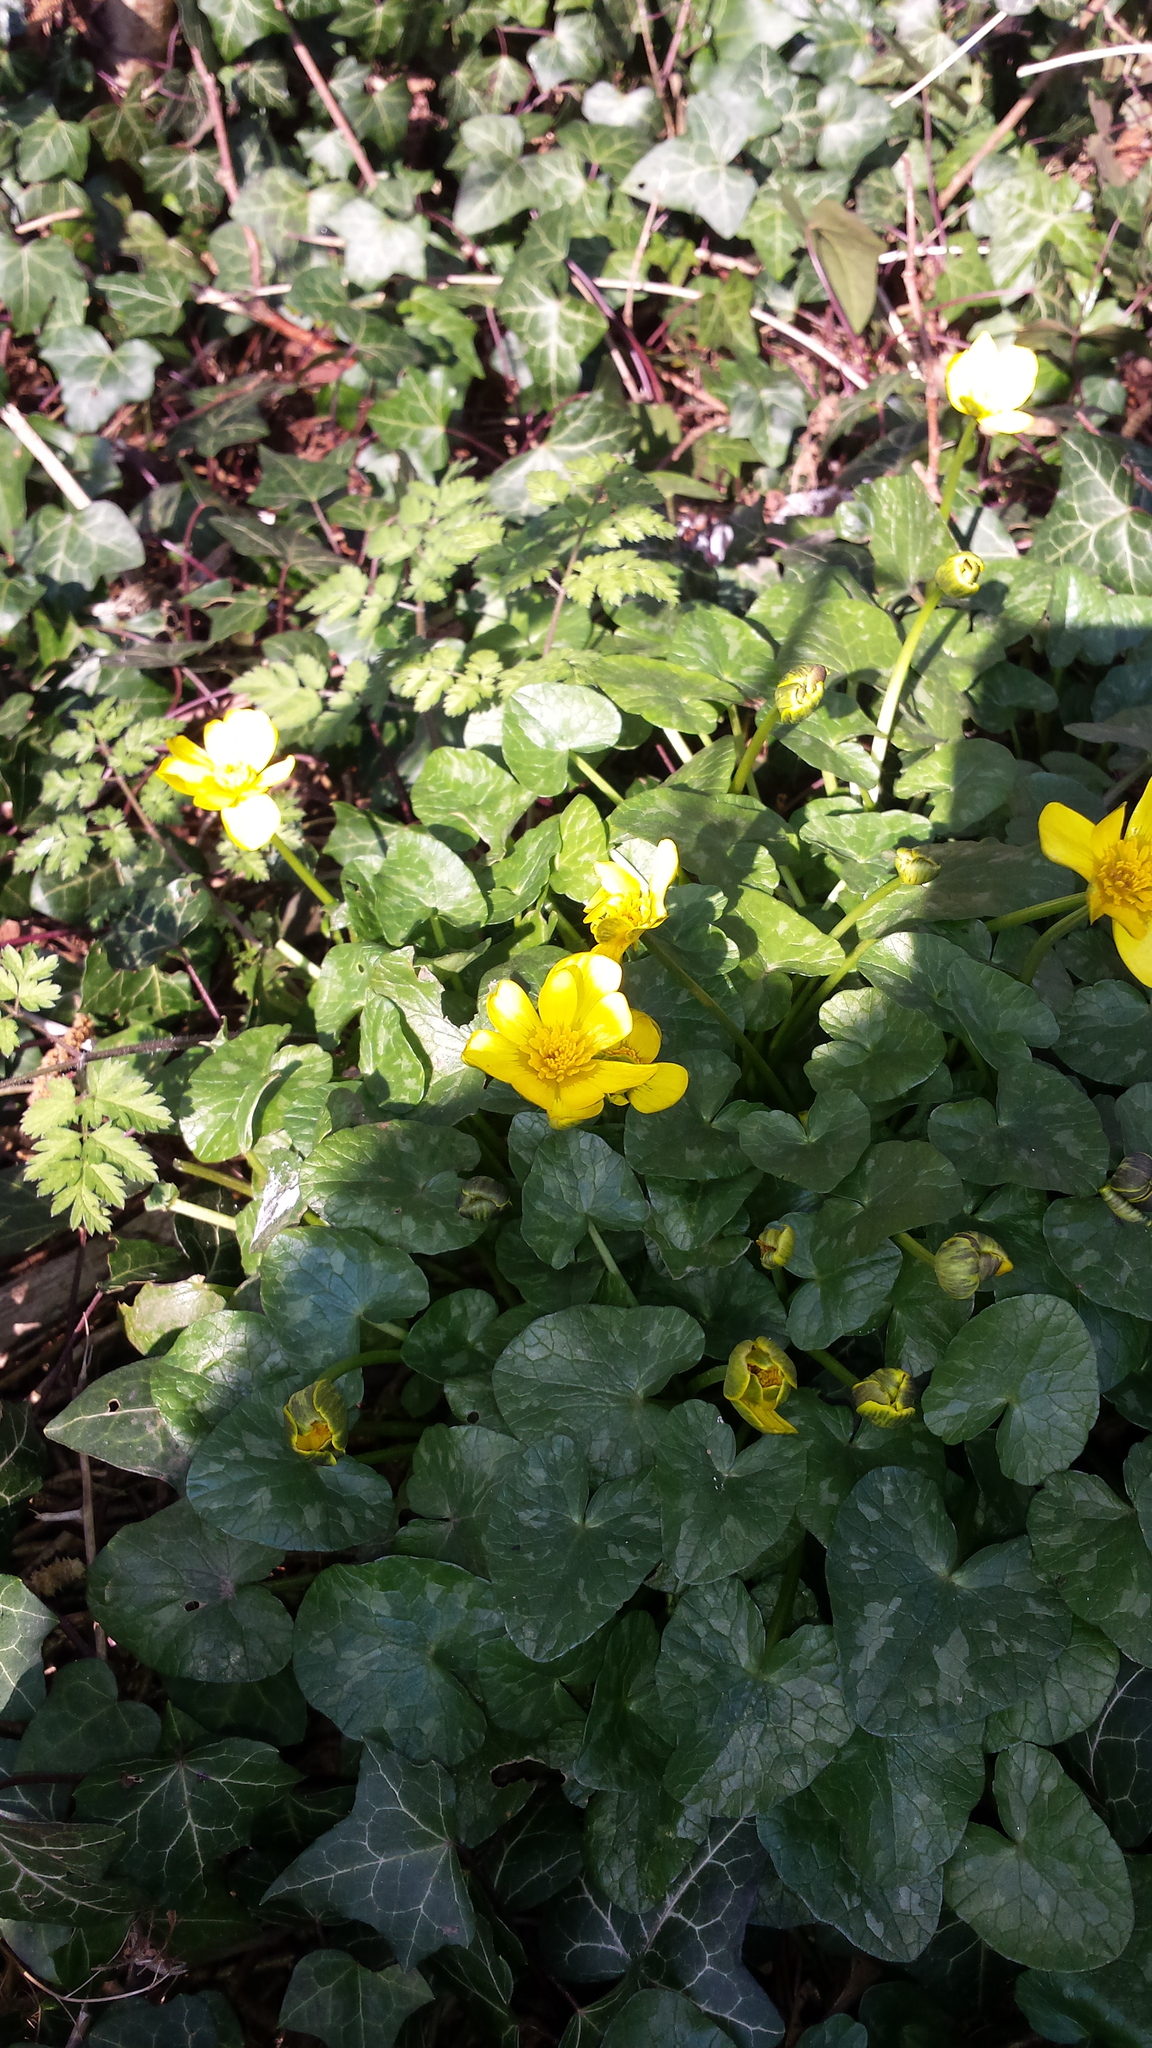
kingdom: Plantae
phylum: Tracheophyta
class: Magnoliopsida
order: Ranunculales
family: Ranunculaceae
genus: Ficaria
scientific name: Ficaria verna
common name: Lesser celandine
